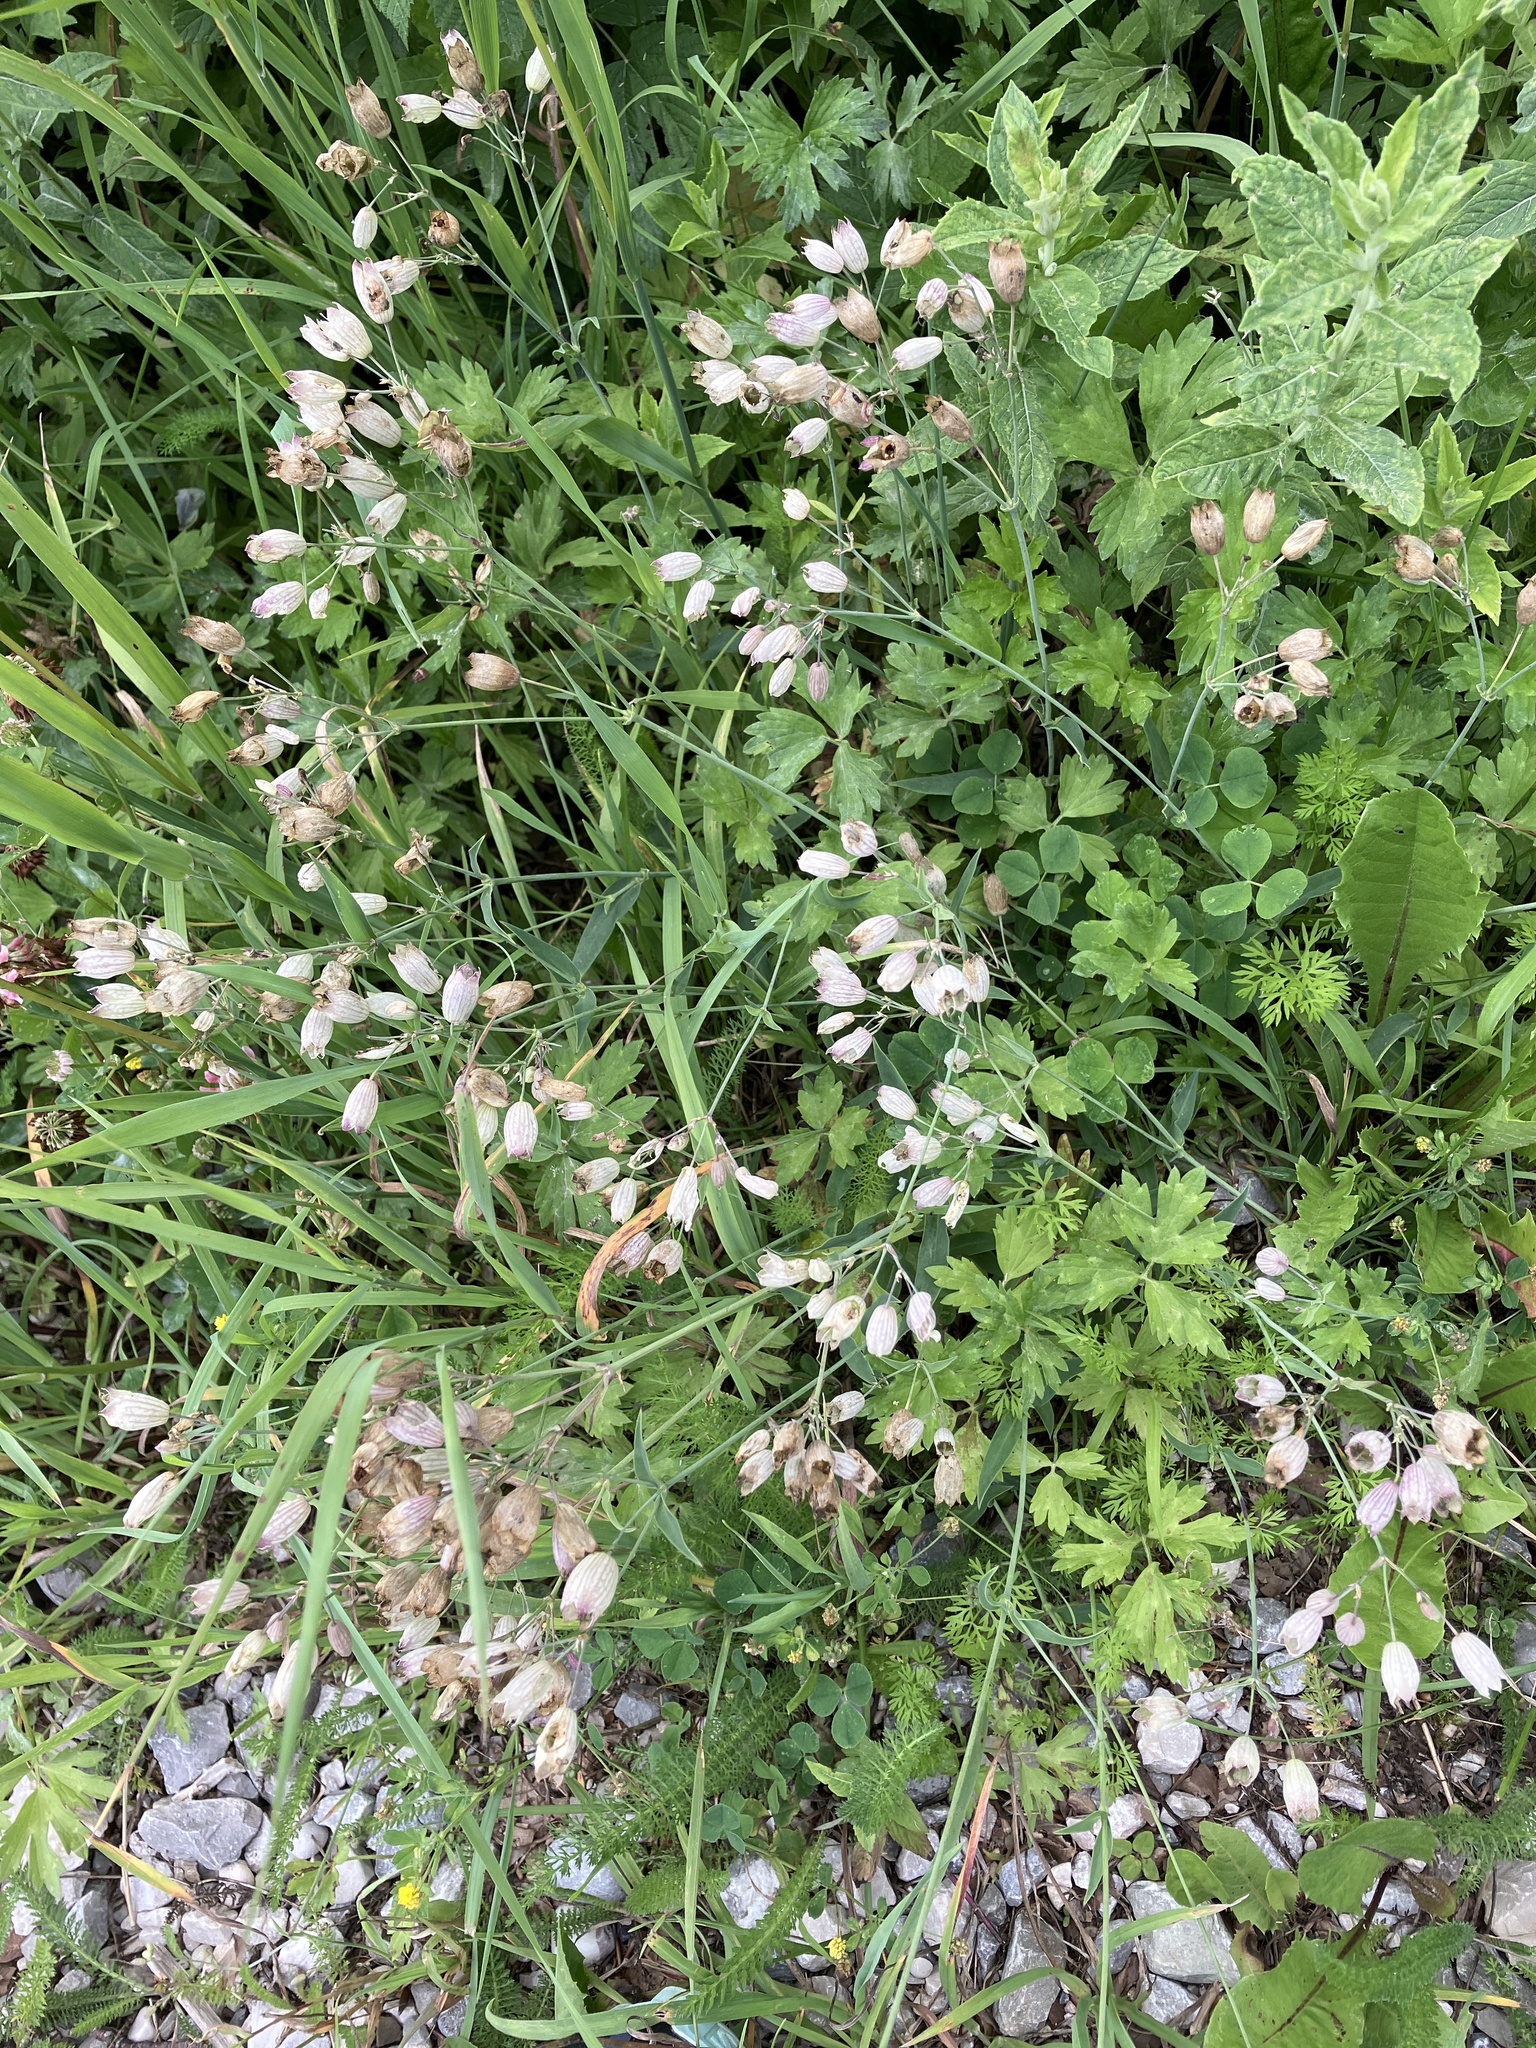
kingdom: Plantae
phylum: Tracheophyta
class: Magnoliopsida
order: Caryophyllales
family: Caryophyllaceae
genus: Silene
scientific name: Silene vulgaris
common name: Bladder campion
